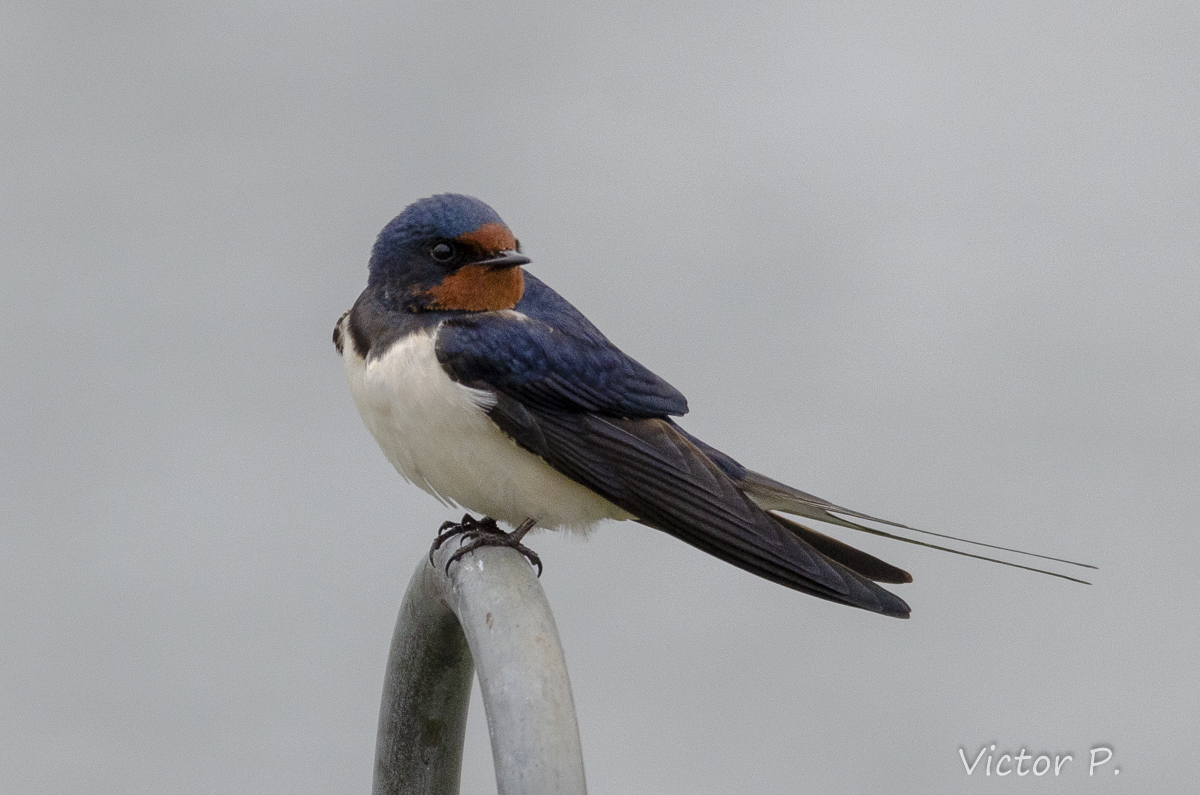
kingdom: Animalia
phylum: Chordata
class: Aves
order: Passeriformes
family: Hirundinidae
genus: Hirundo
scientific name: Hirundo rustica
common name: Barn swallow
